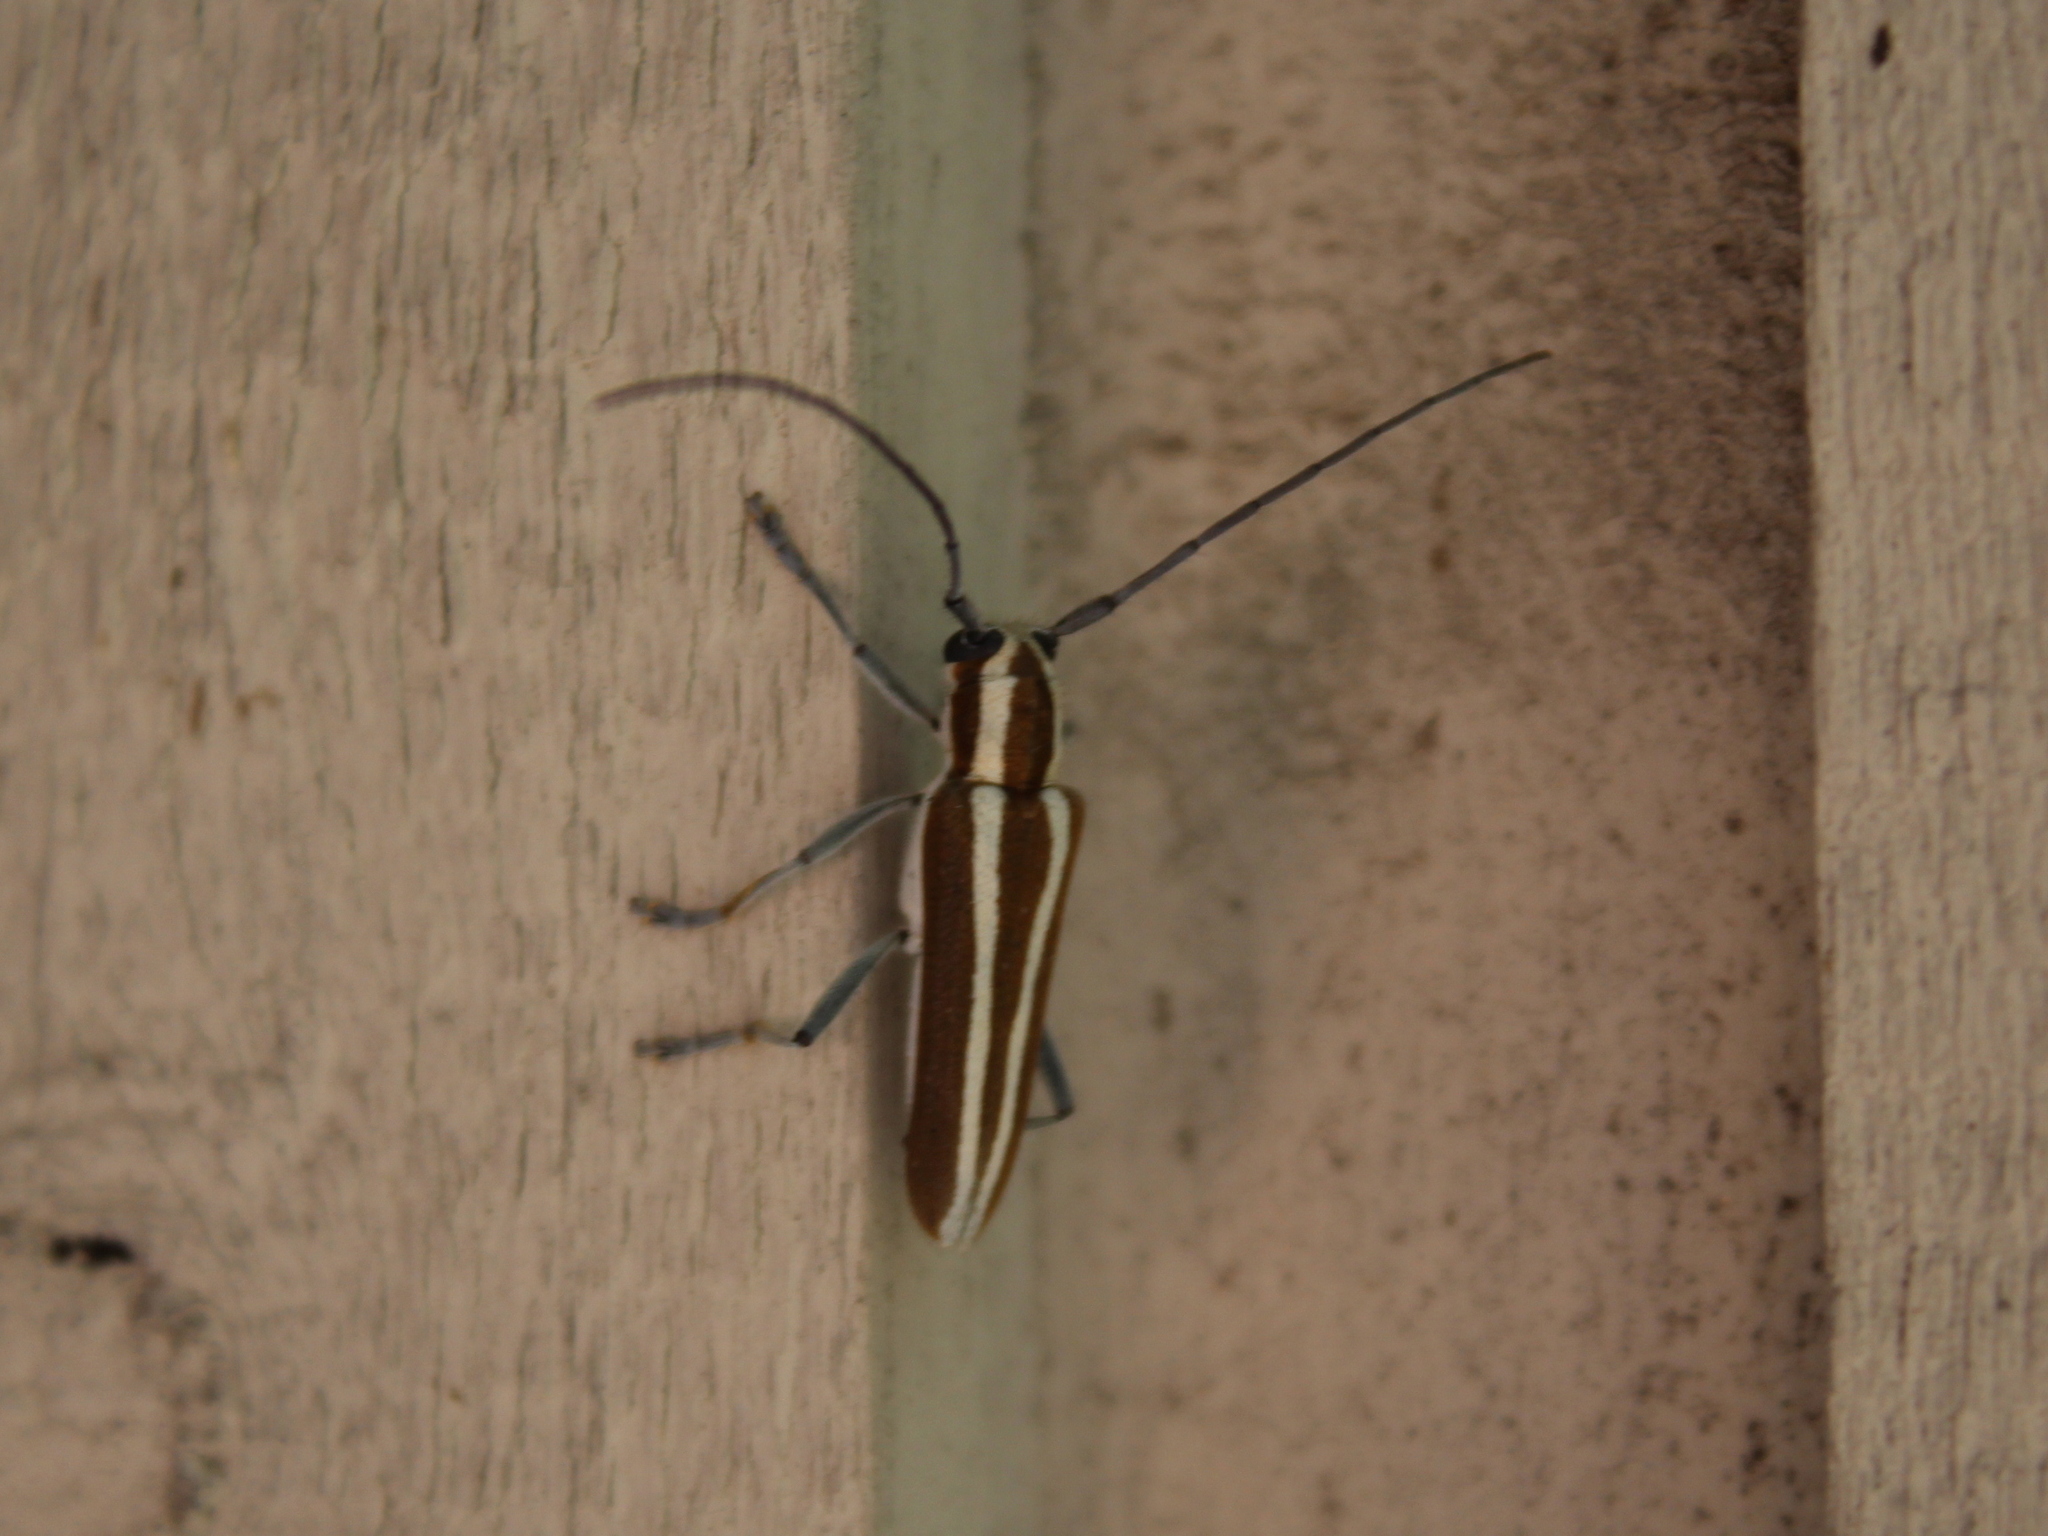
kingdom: Animalia
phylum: Arthropoda
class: Insecta
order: Coleoptera
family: Cerambycidae
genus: Saperda
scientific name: Saperda candida
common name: Round-headed borer
